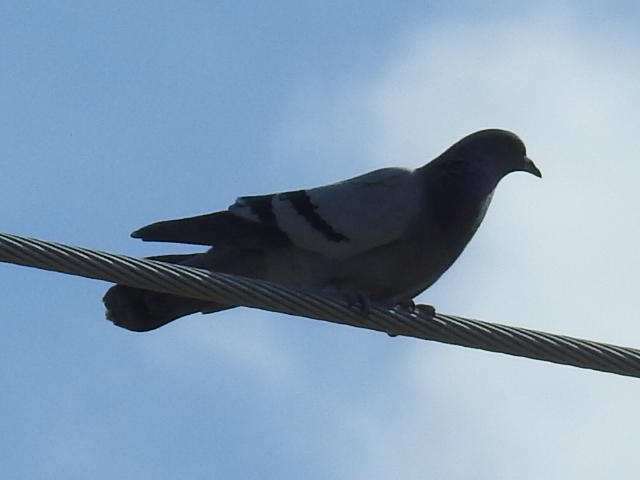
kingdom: Animalia
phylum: Chordata
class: Aves
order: Columbiformes
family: Columbidae
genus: Columba
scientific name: Columba livia
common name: Rock pigeon
